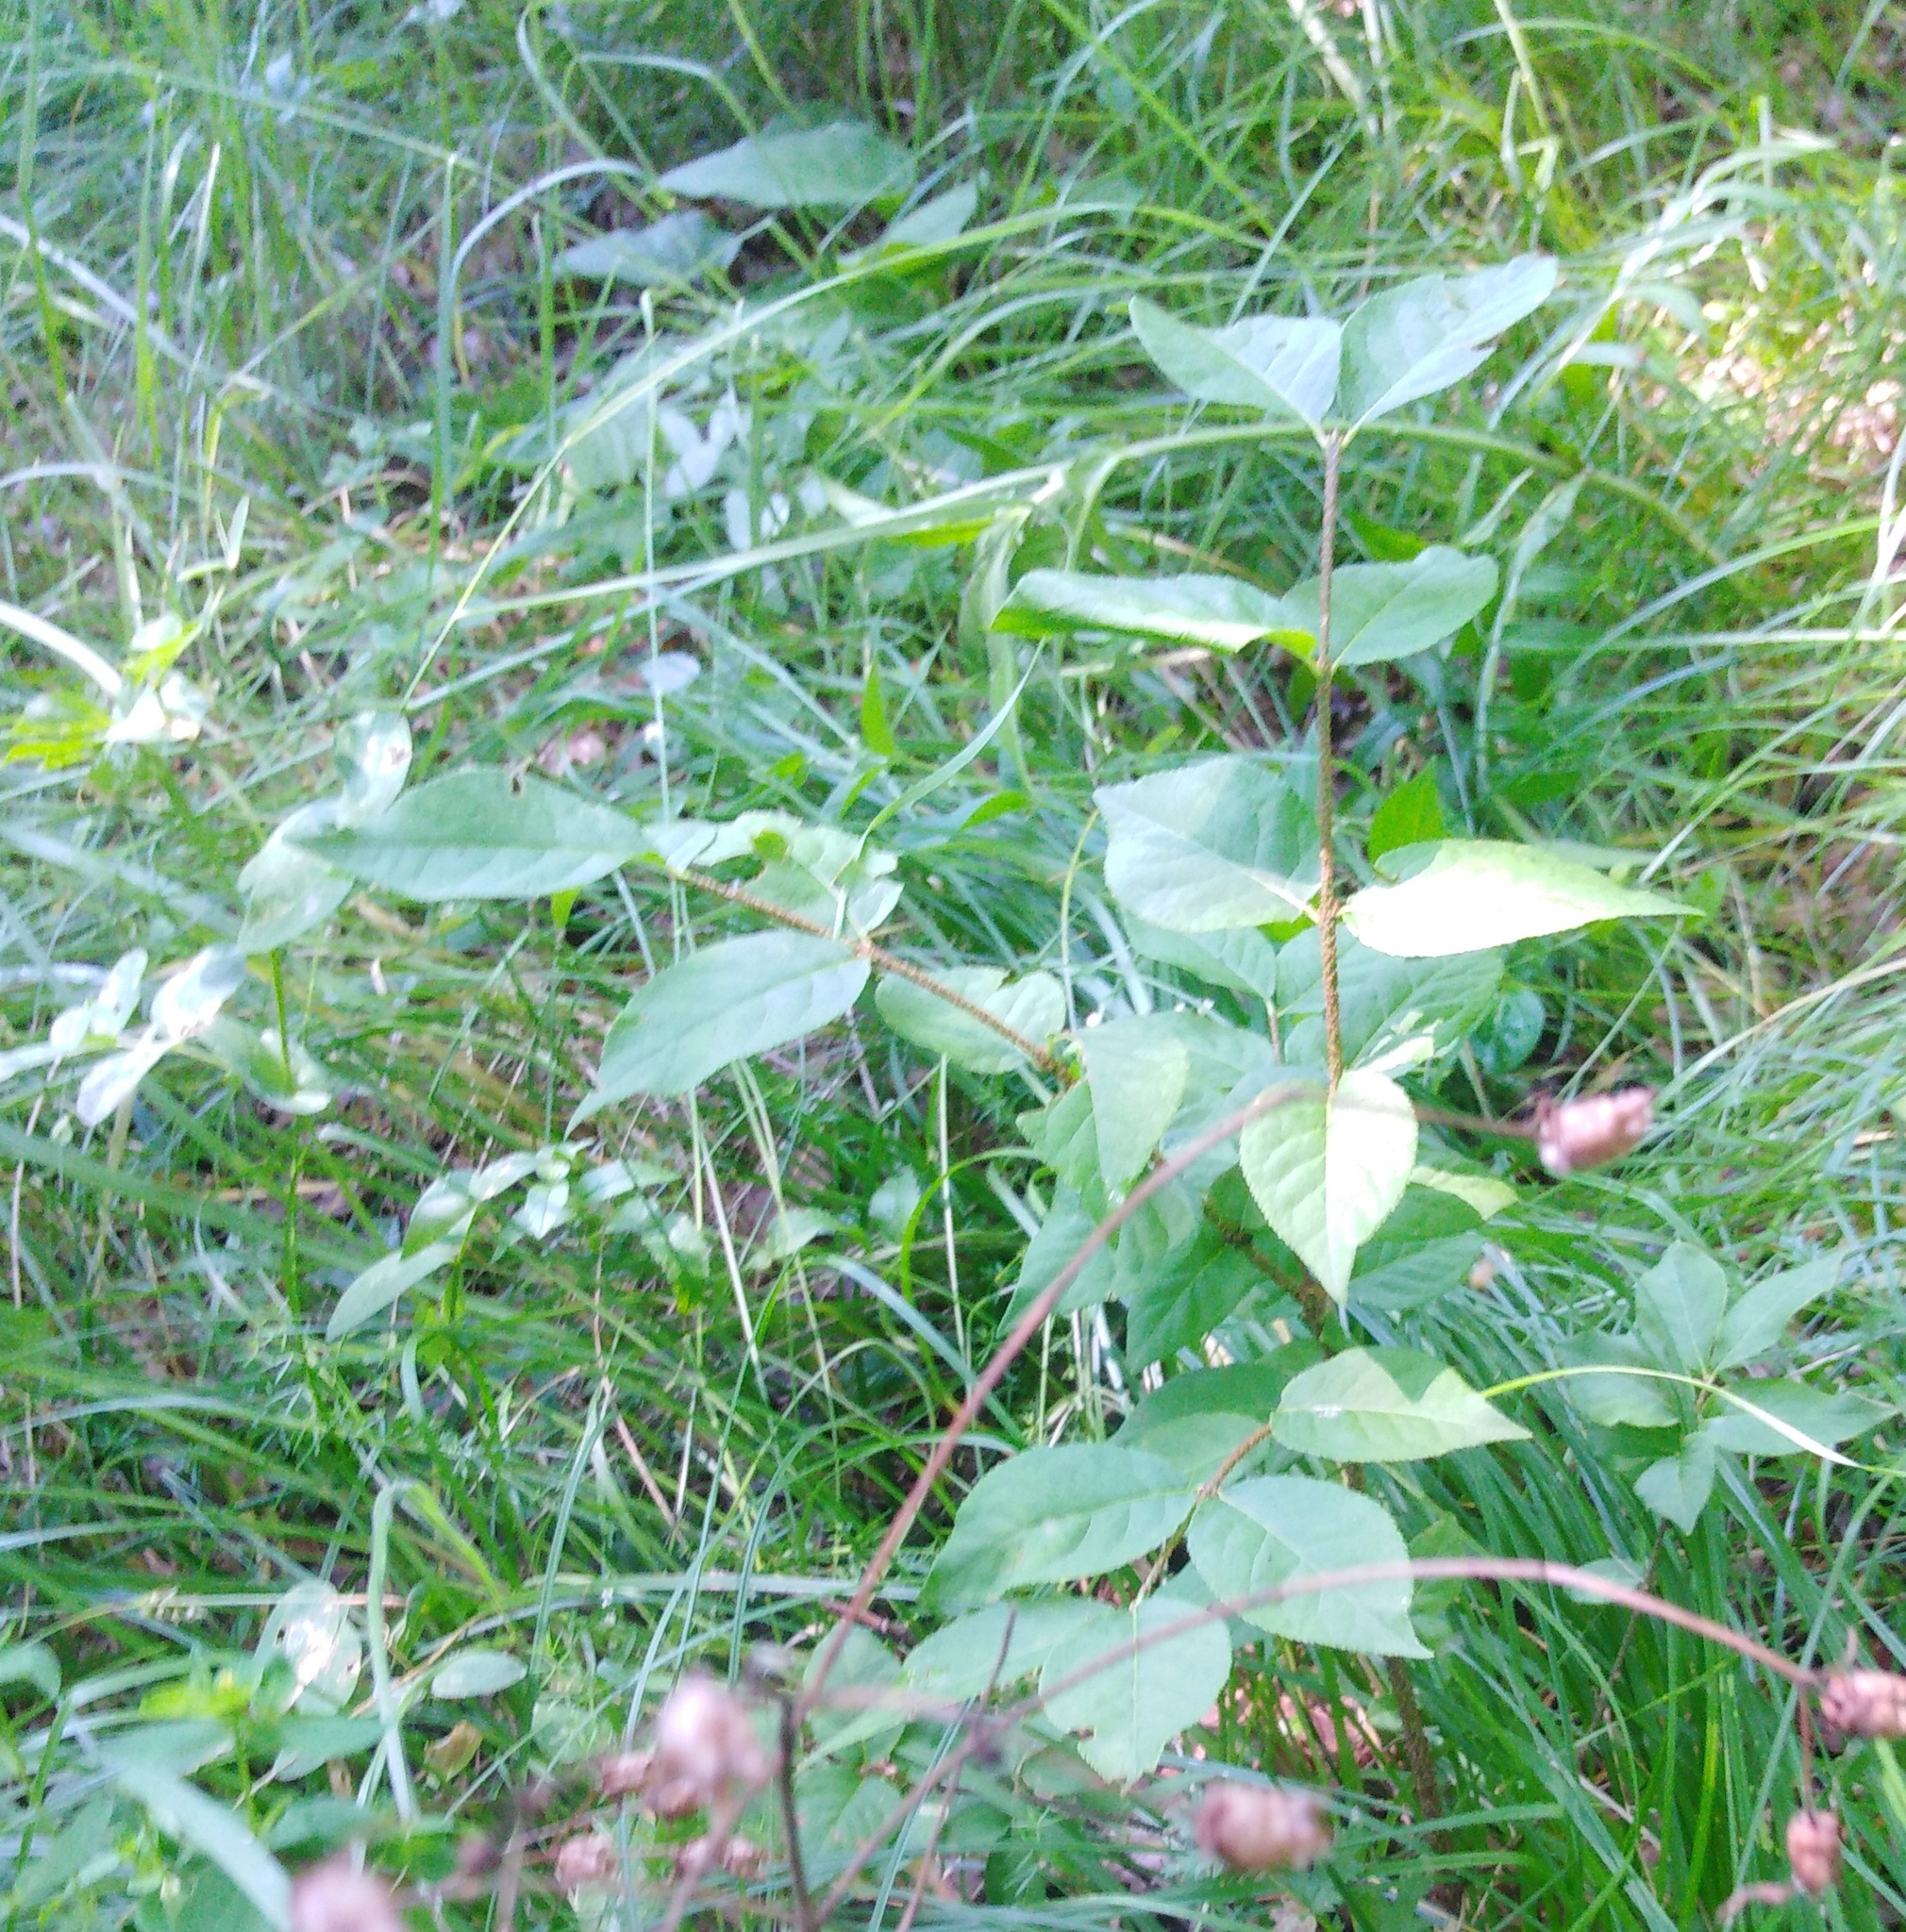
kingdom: Plantae
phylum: Tracheophyta
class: Magnoliopsida
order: Celastrales
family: Celastraceae
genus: Euonymus
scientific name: Euonymus verrucosus
